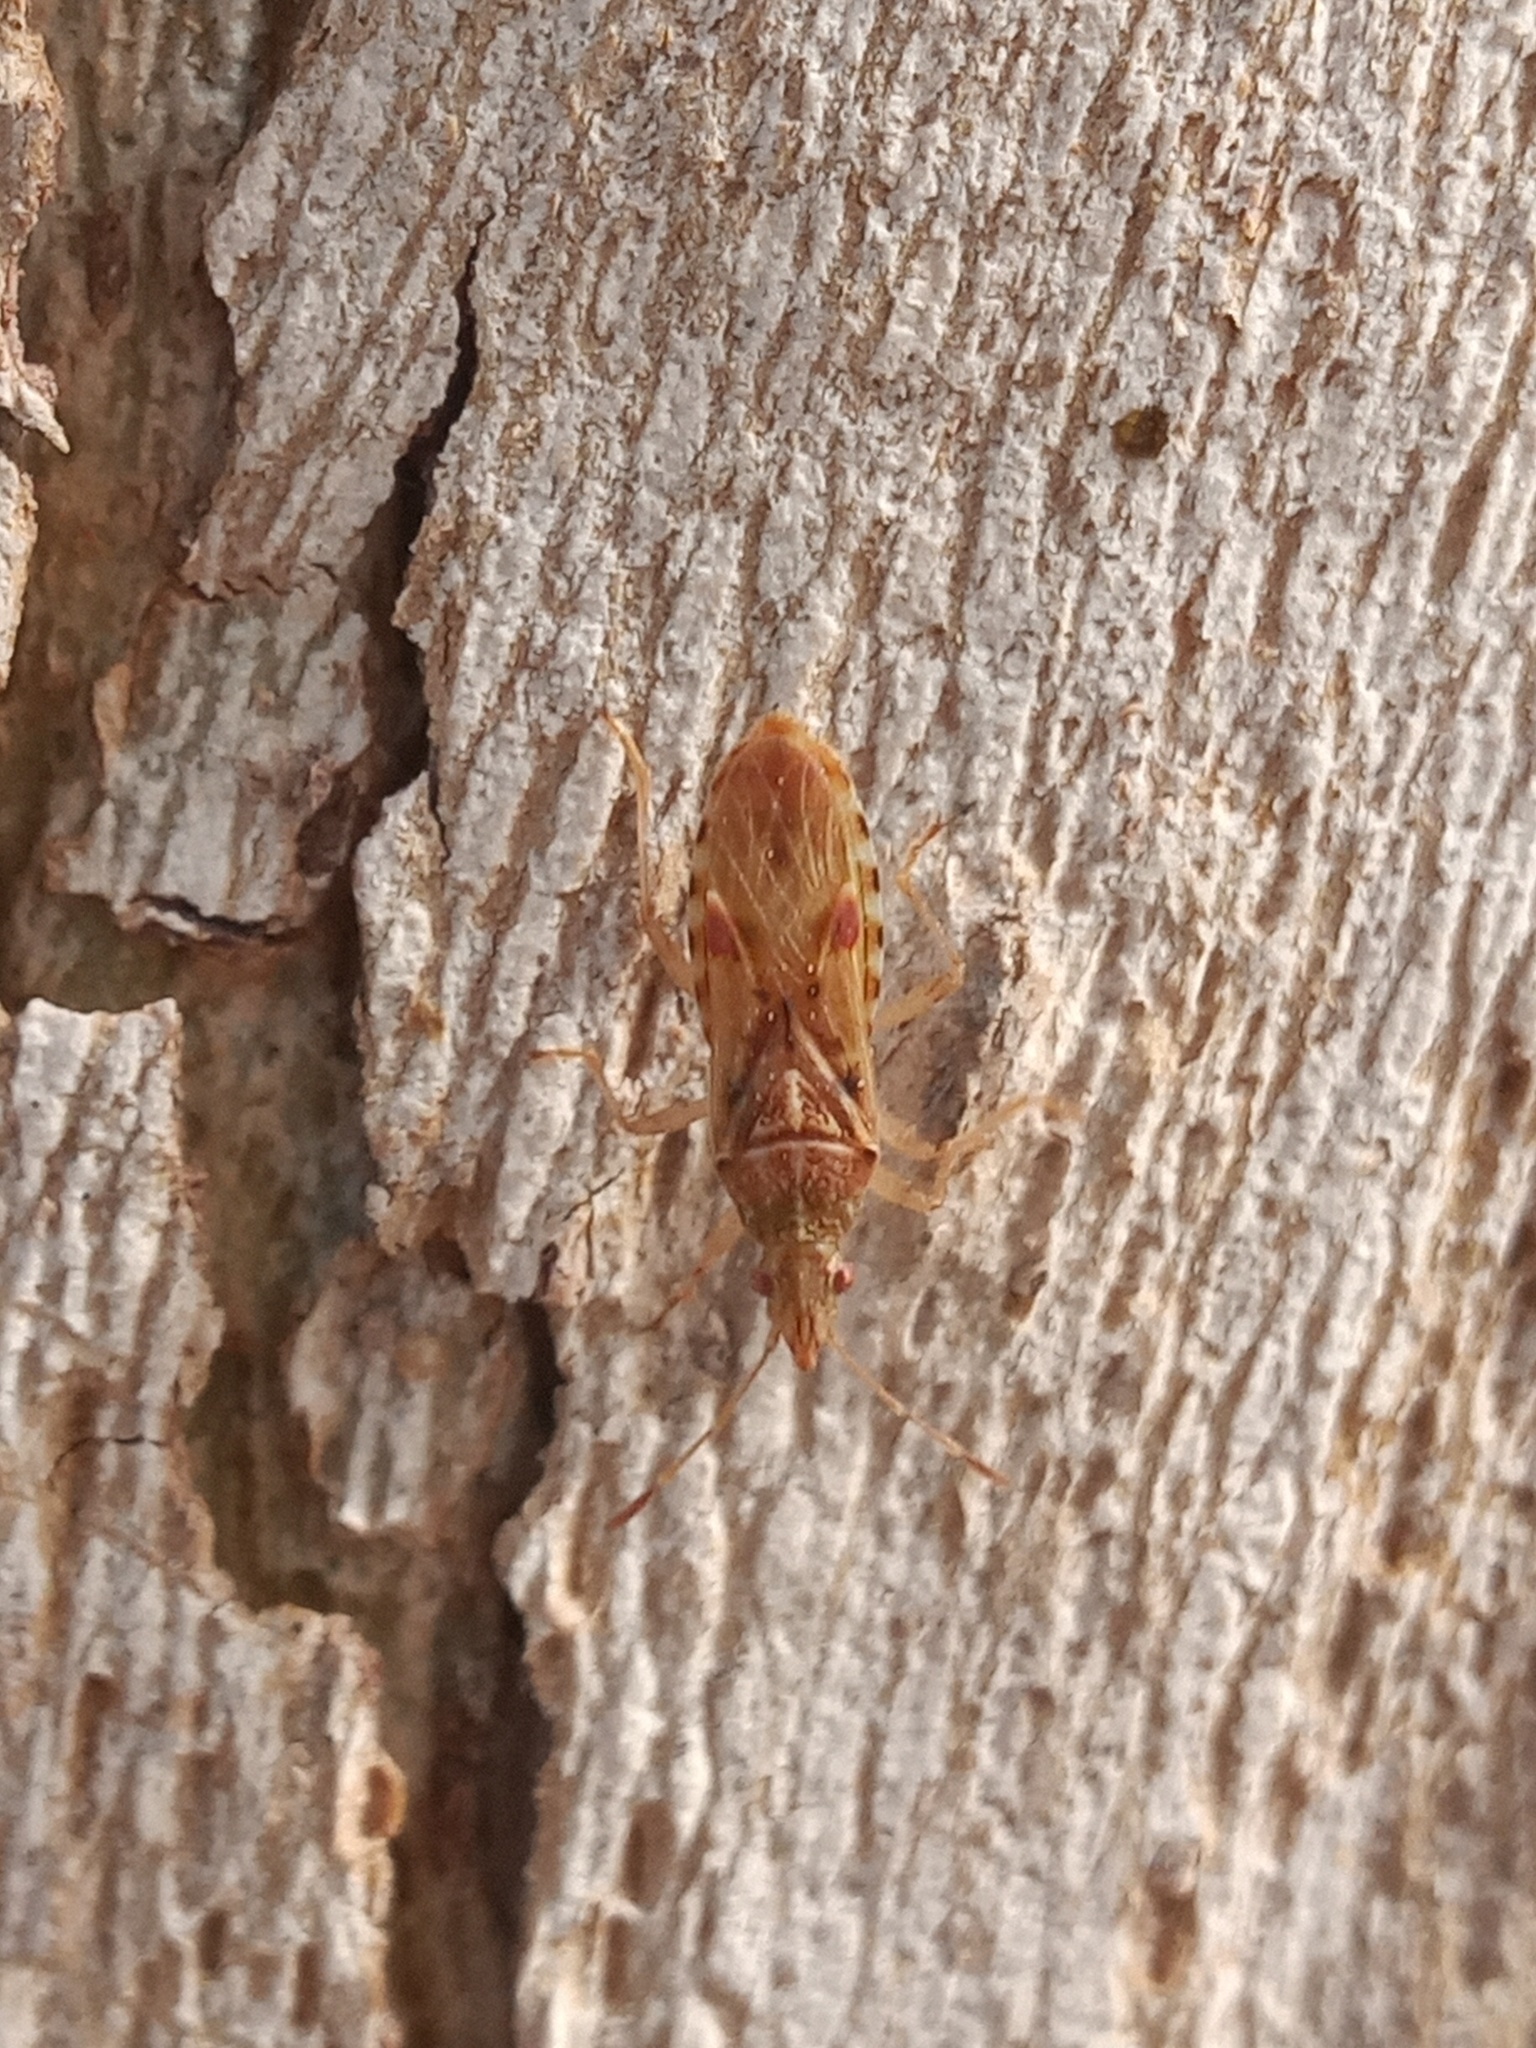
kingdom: Animalia
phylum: Arthropoda
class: Insecta
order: Hemiptera
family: Lygaeidae
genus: Belonochilus
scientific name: Belonochilus numenius
